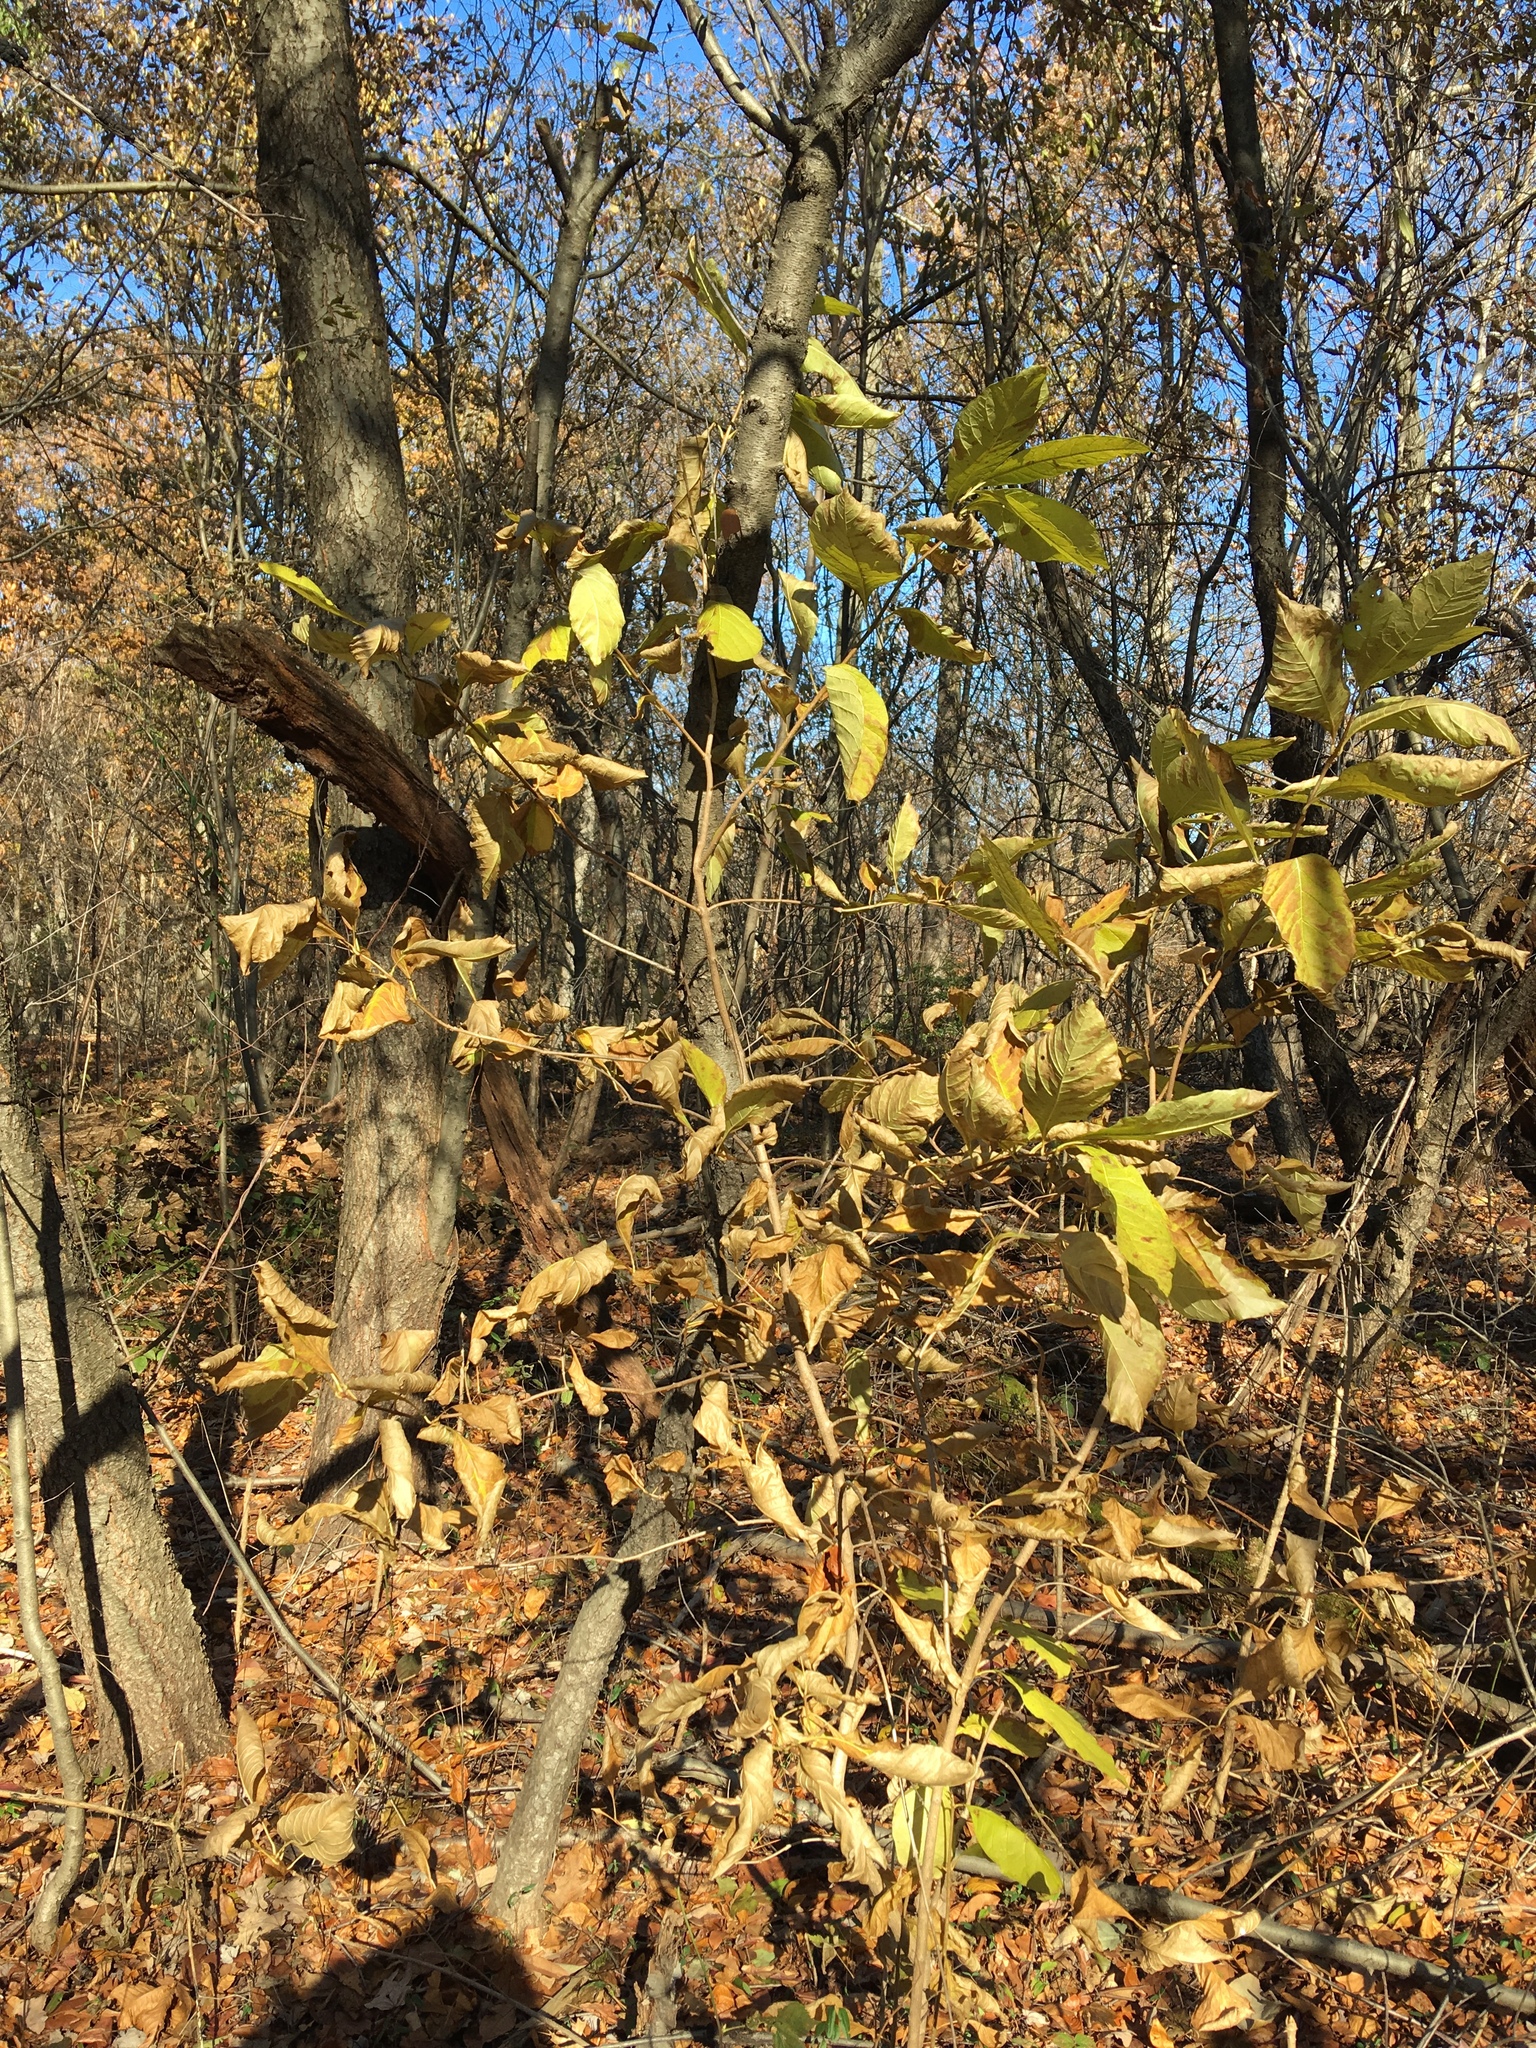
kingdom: Plantae
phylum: Tracheophyta
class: Magnoliopsida
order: Lamiales
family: Oleaceae
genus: Chionanthus
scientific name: Chionanthus virginicus
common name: American fringetree
